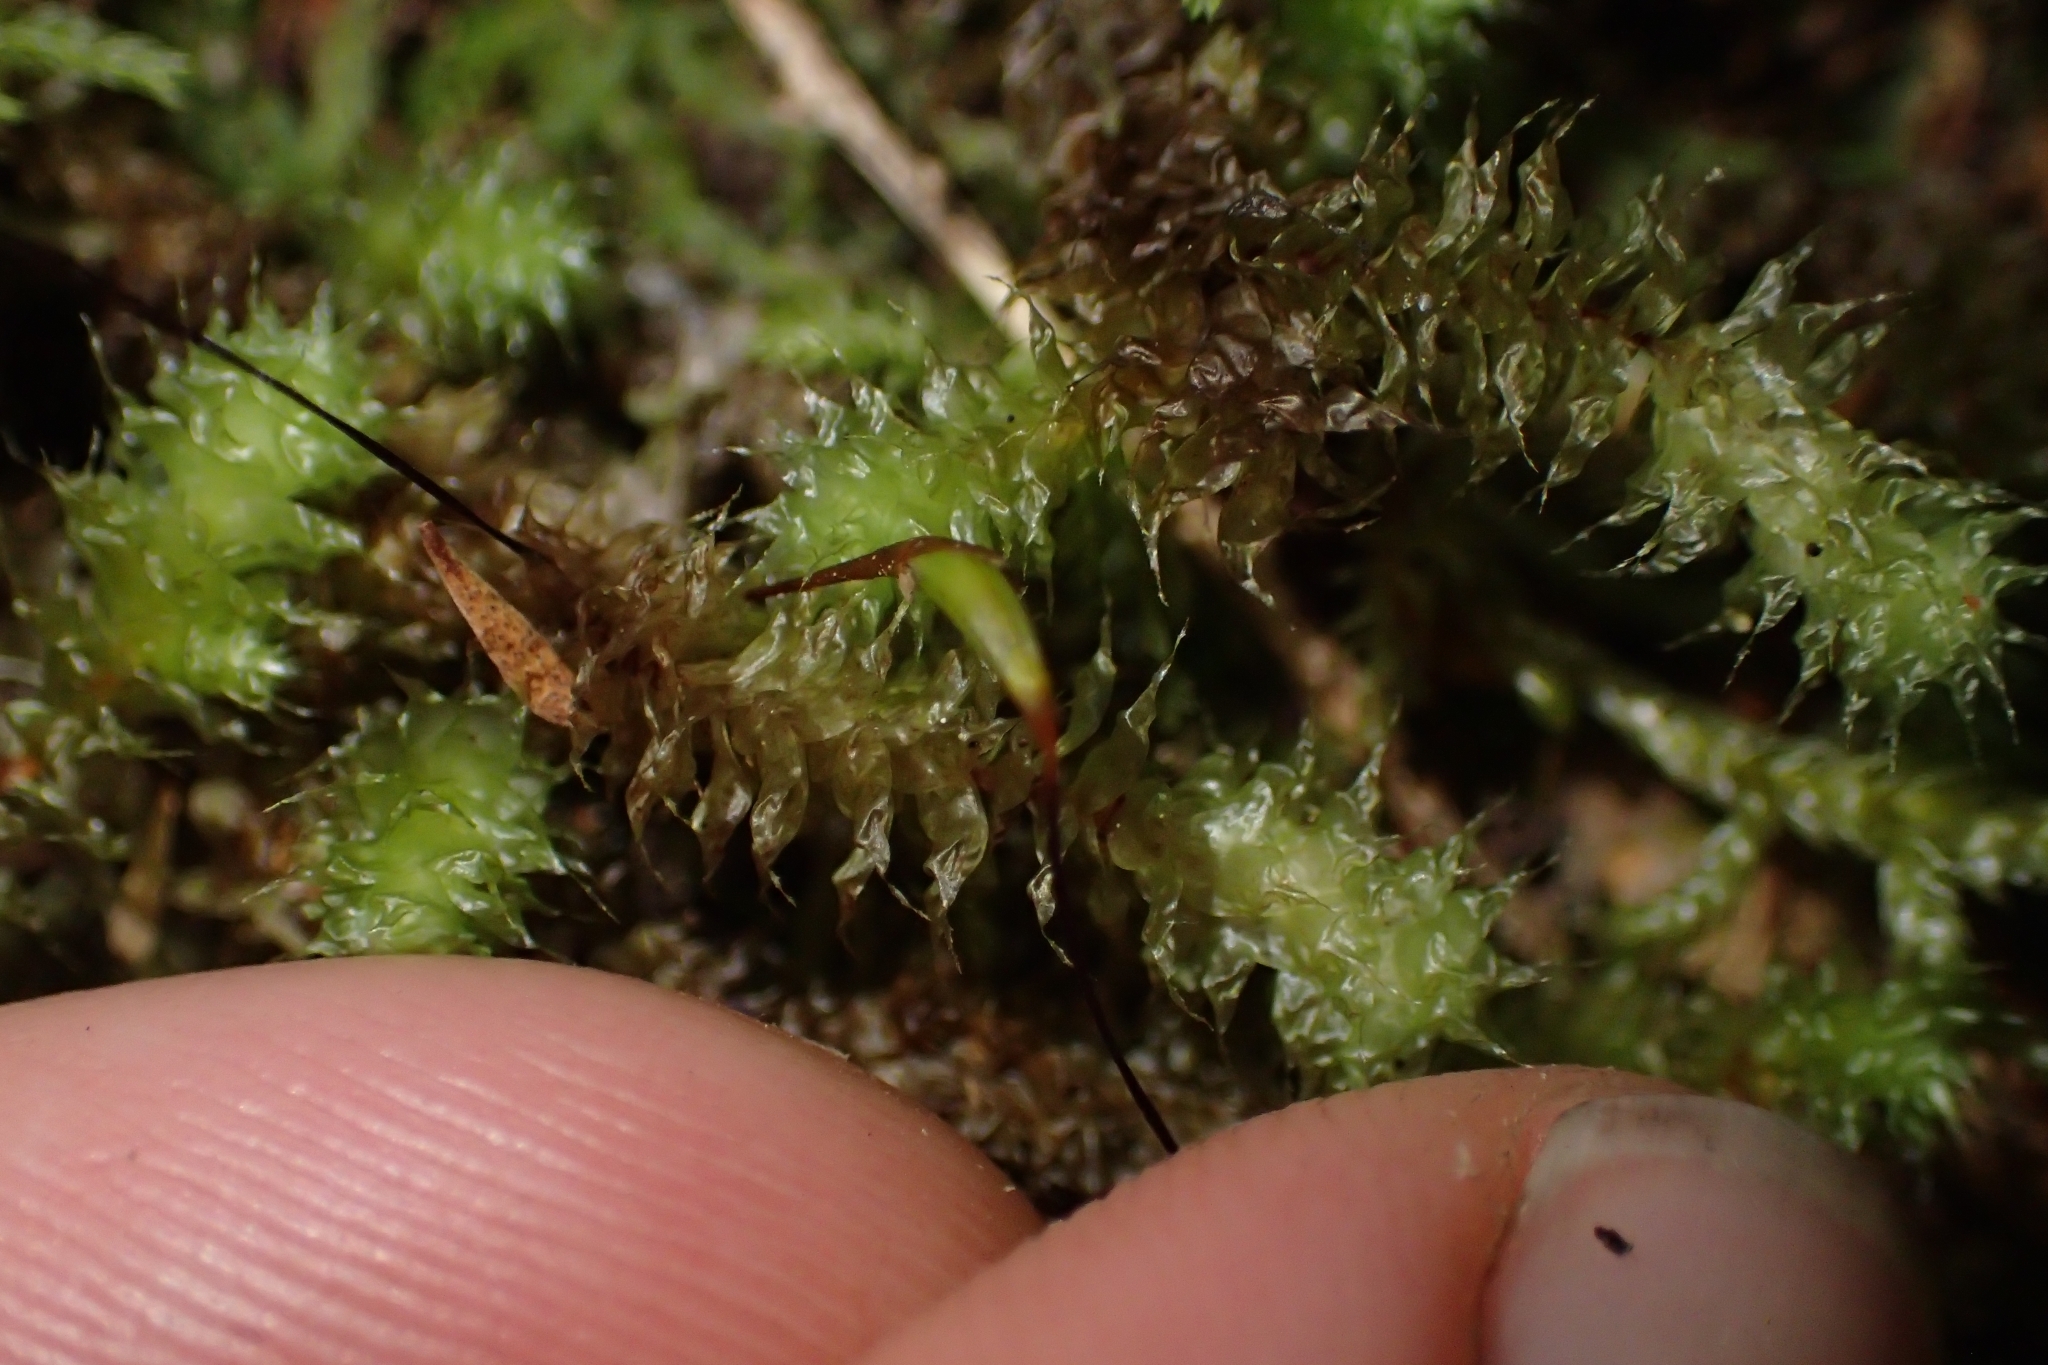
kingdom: Plantae
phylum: Bryophyta
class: Bryopsida
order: Ptychomniales
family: Ptychomniaceae
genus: Ptychomnion
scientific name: Ptychomnion aciculare
